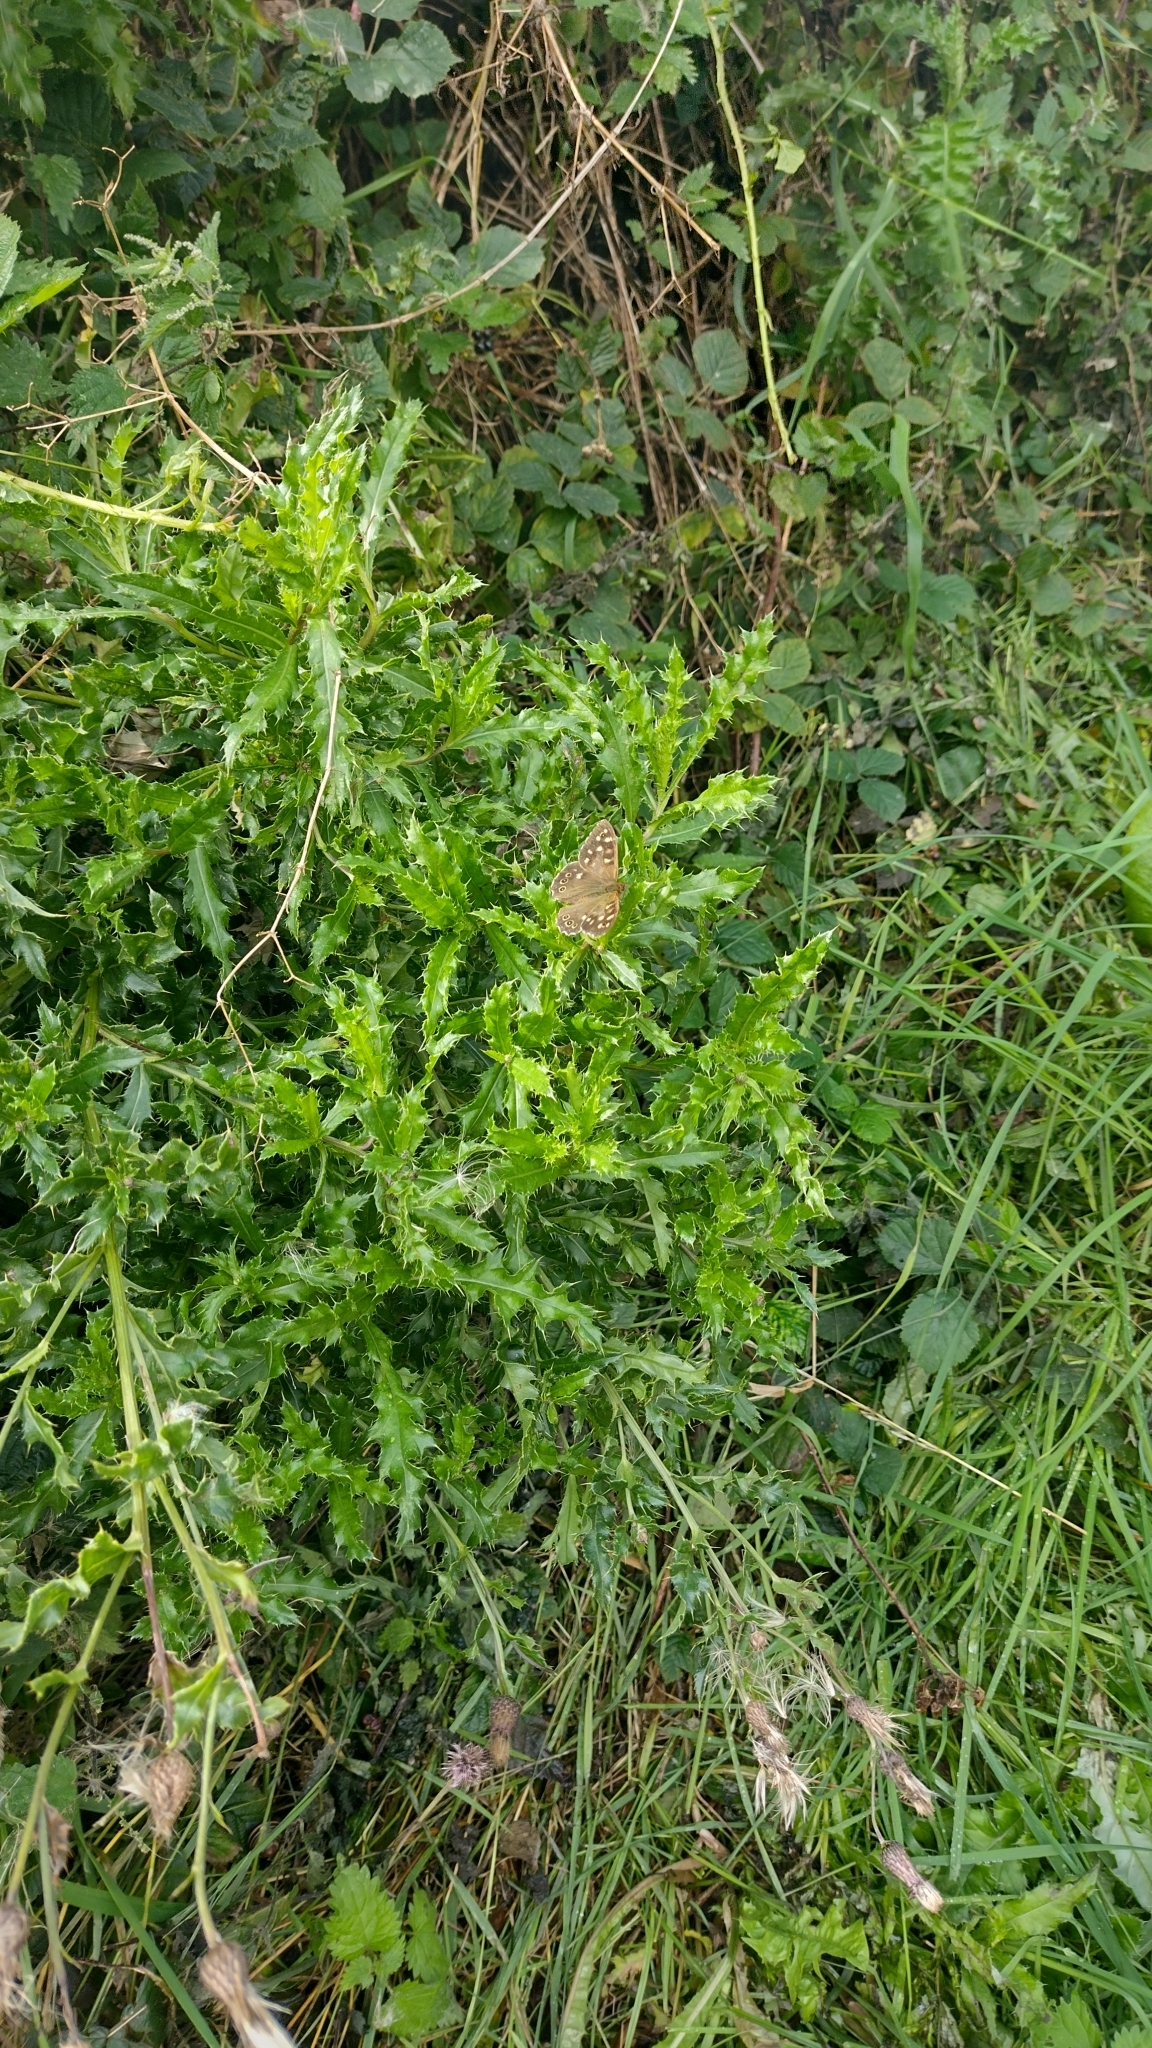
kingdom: Animalia
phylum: Arthropoda
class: Insecta
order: Lepidoptera
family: Nymphalidae
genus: Pararge
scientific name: Pararge aegeria
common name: Speckled wood
